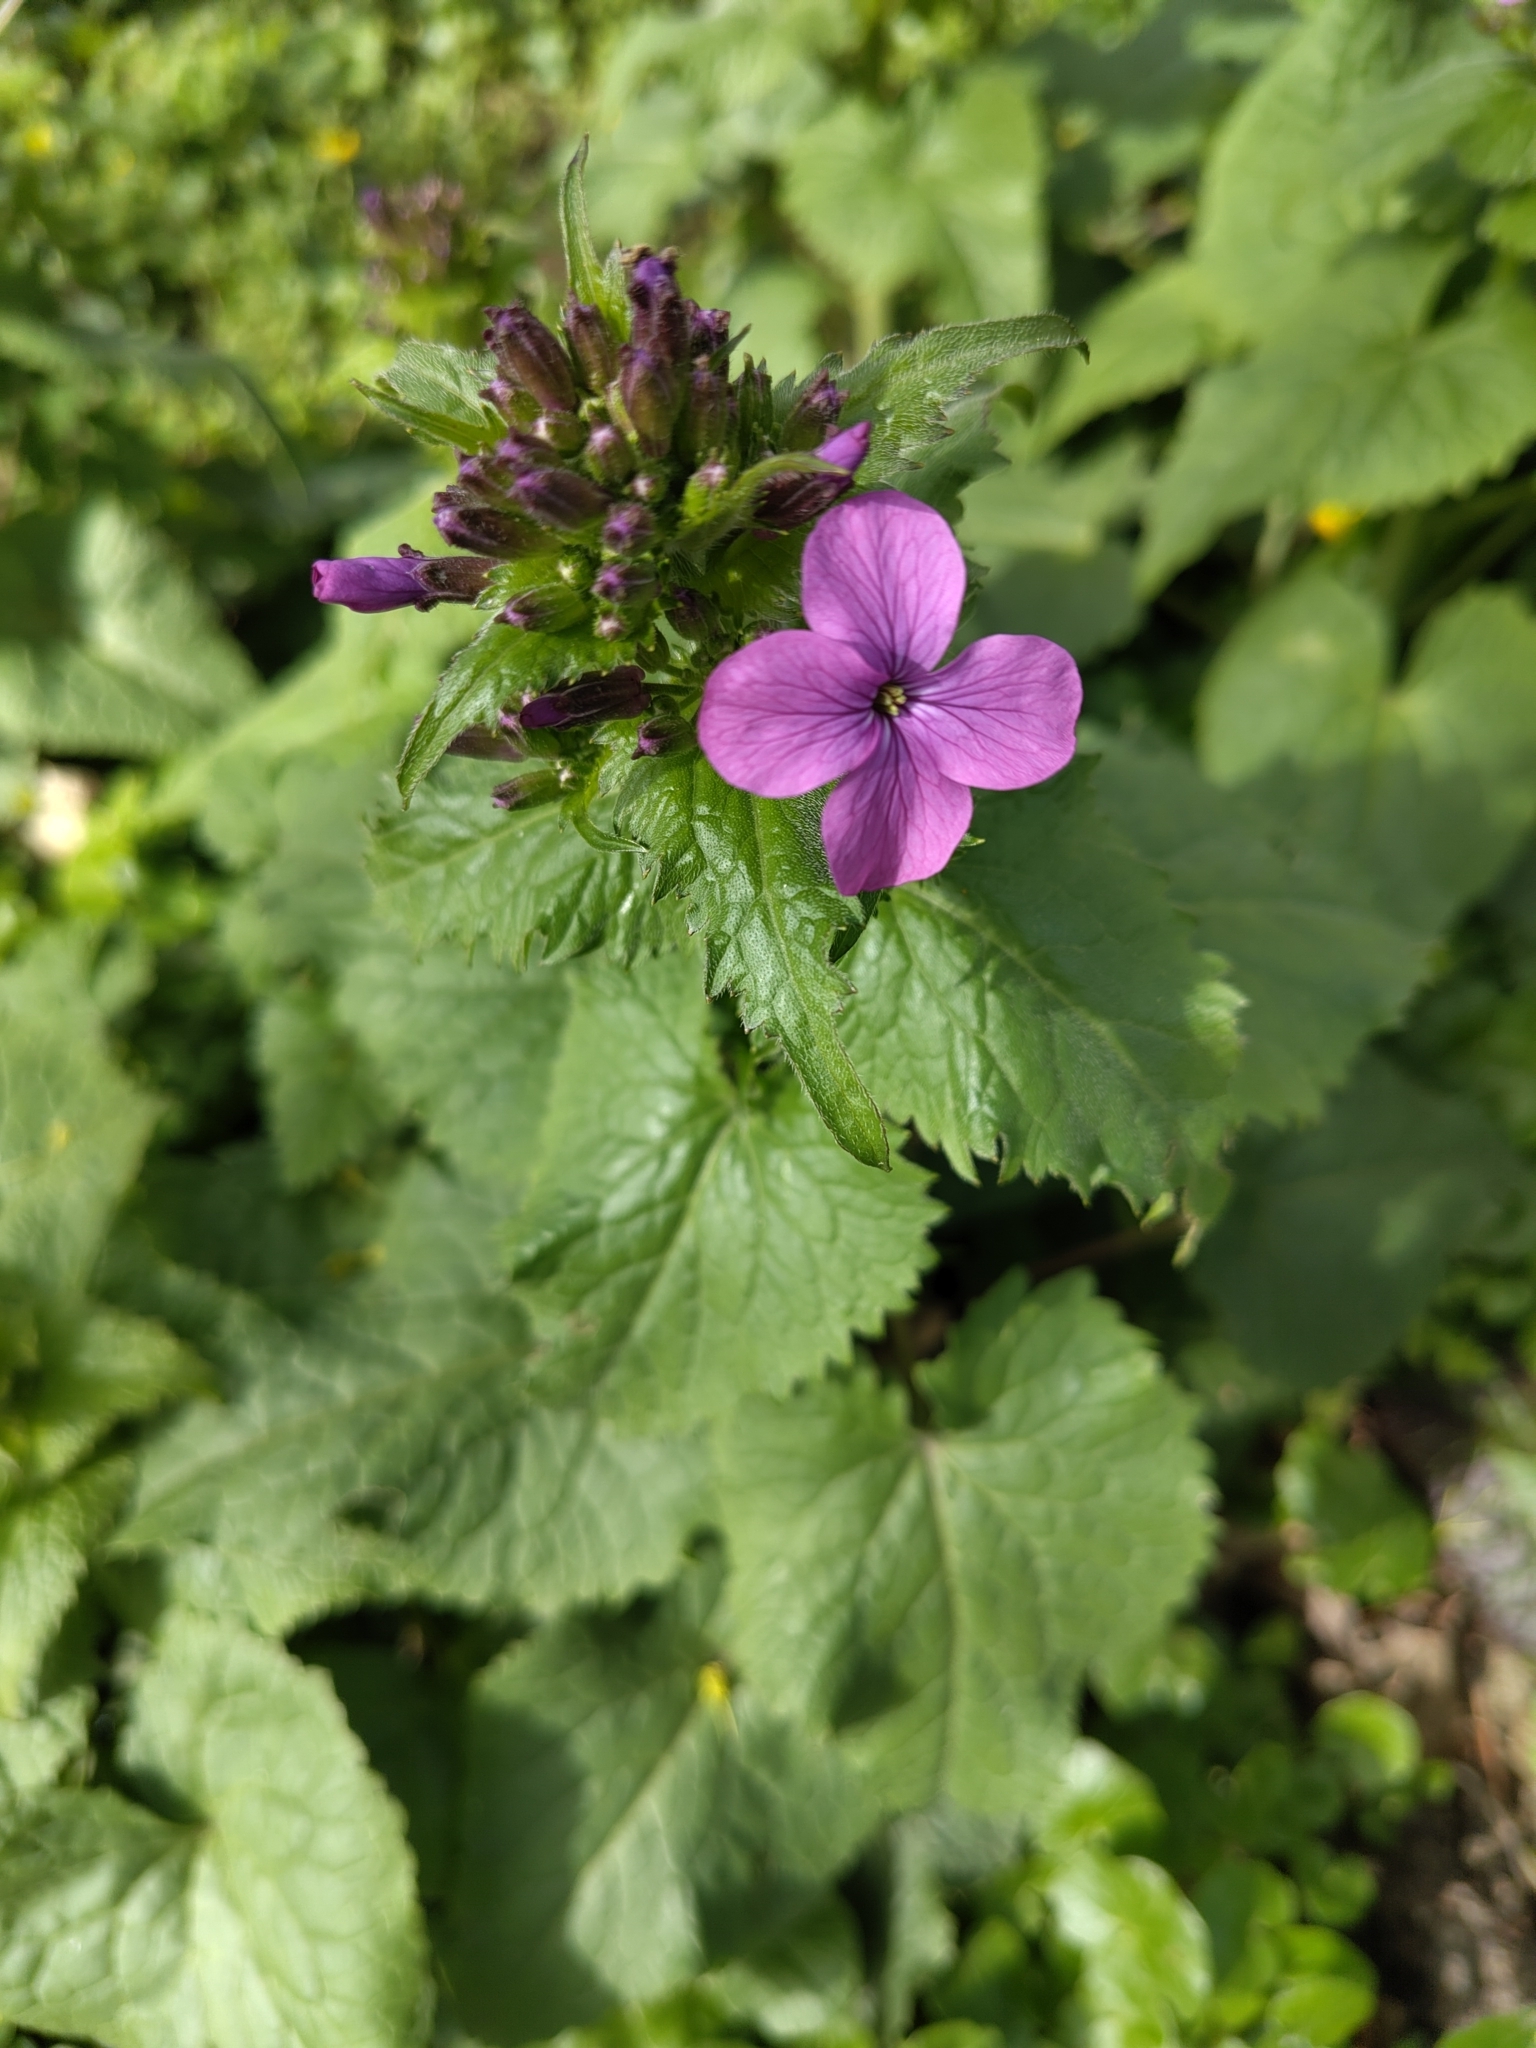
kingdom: Plantae
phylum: Tracheophyta
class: Magnoliopsida
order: Brassicales
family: Brassicaceae
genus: Lunaria
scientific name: Lunaria annua
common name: Honesty
